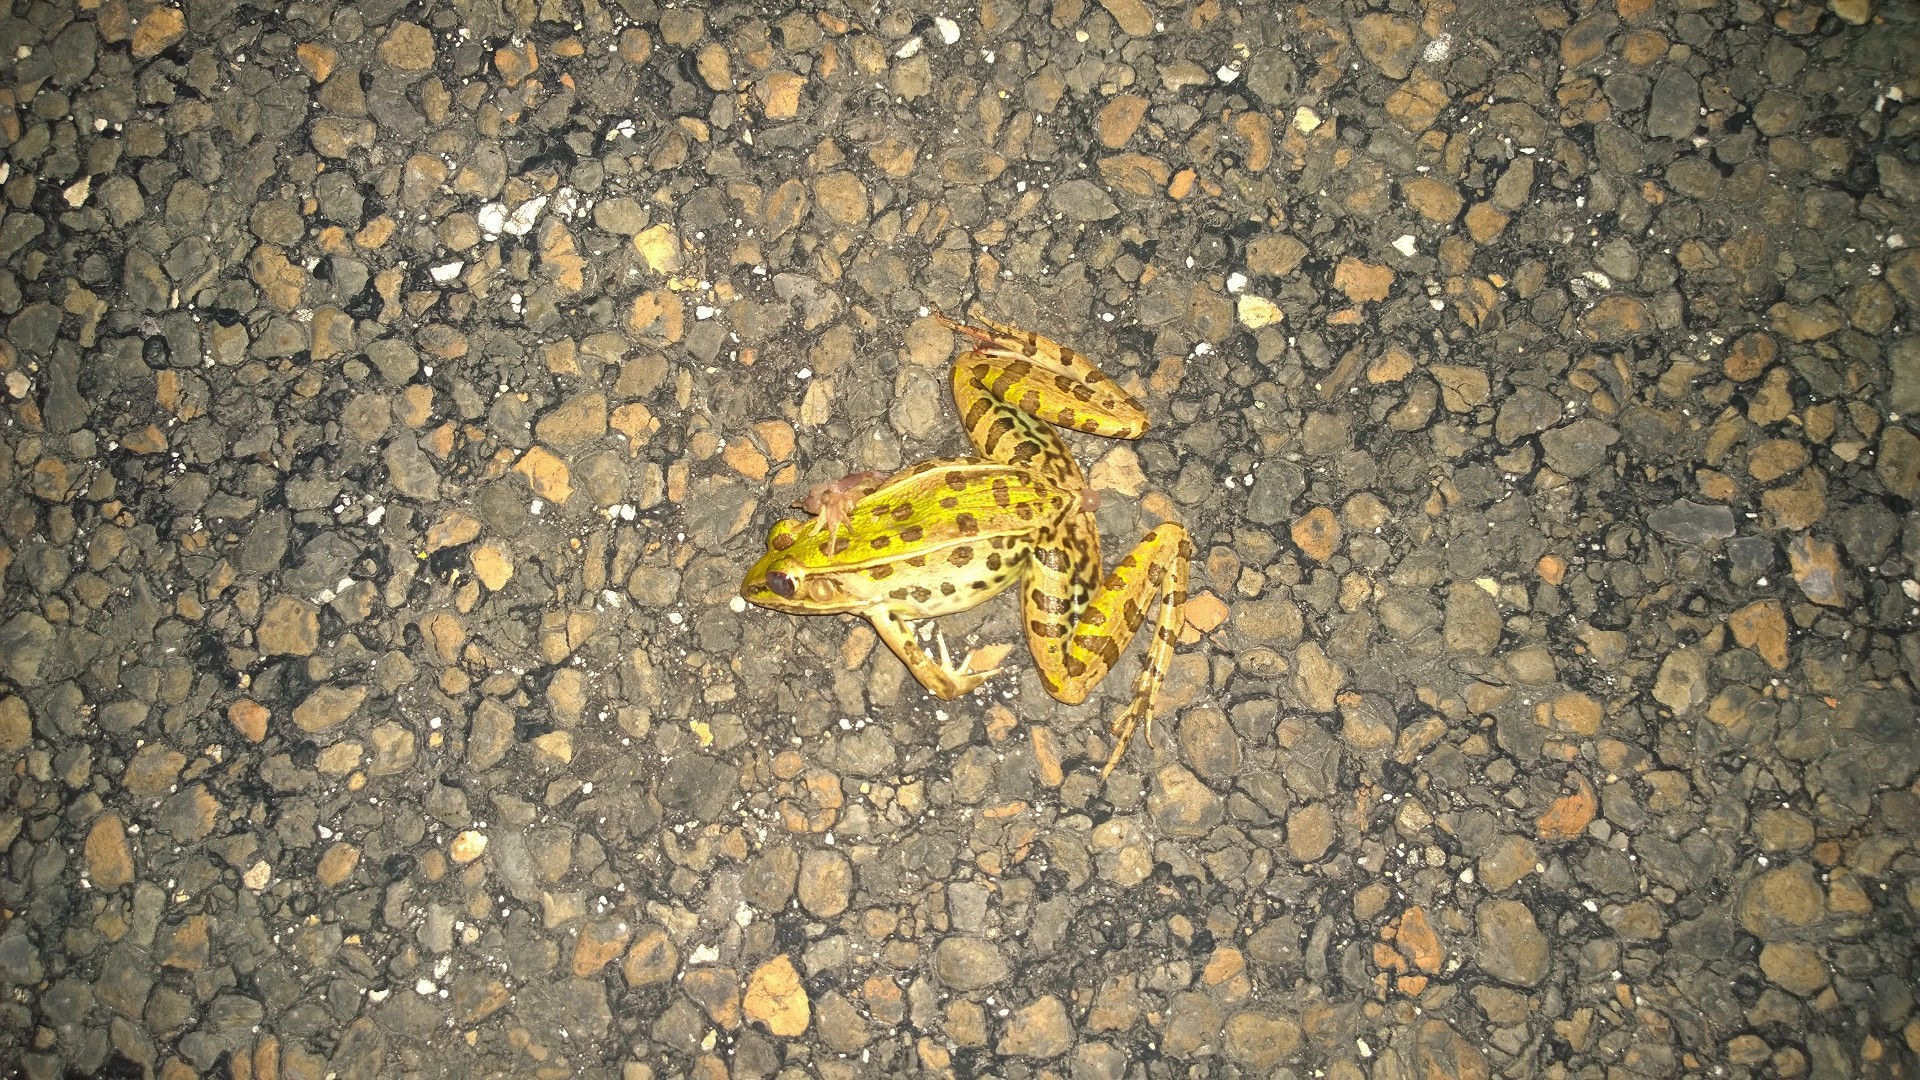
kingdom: Animalia
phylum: Chordata
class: Amphibia
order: Anura
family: Ranidae
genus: Lithobates
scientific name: Lithobates sphenocephalus
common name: Southern leopard frog
